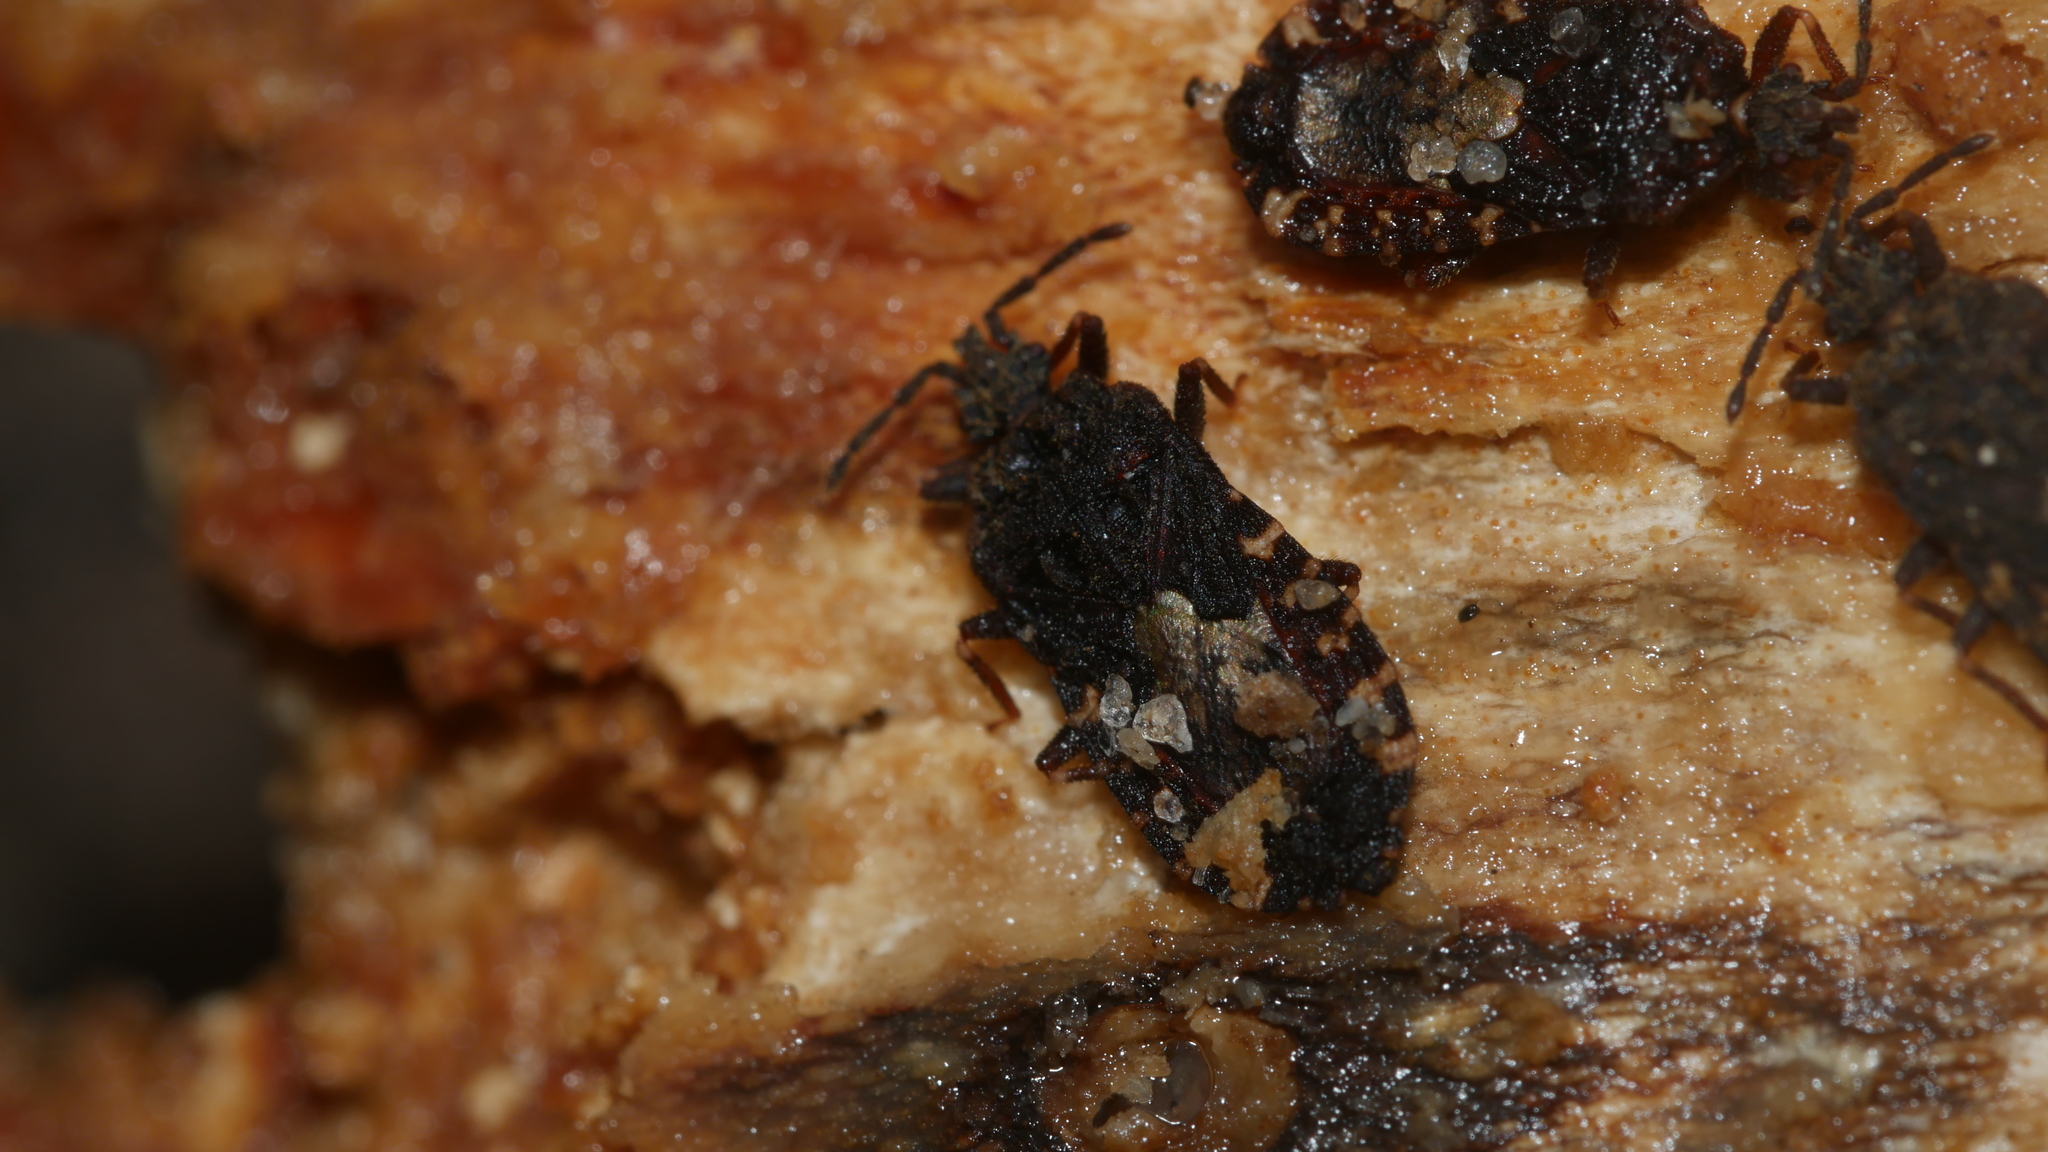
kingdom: Animalia
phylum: Arthropoda
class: Insecta
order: Hemiptera
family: Aradidae
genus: Mezira
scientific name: Mezira
